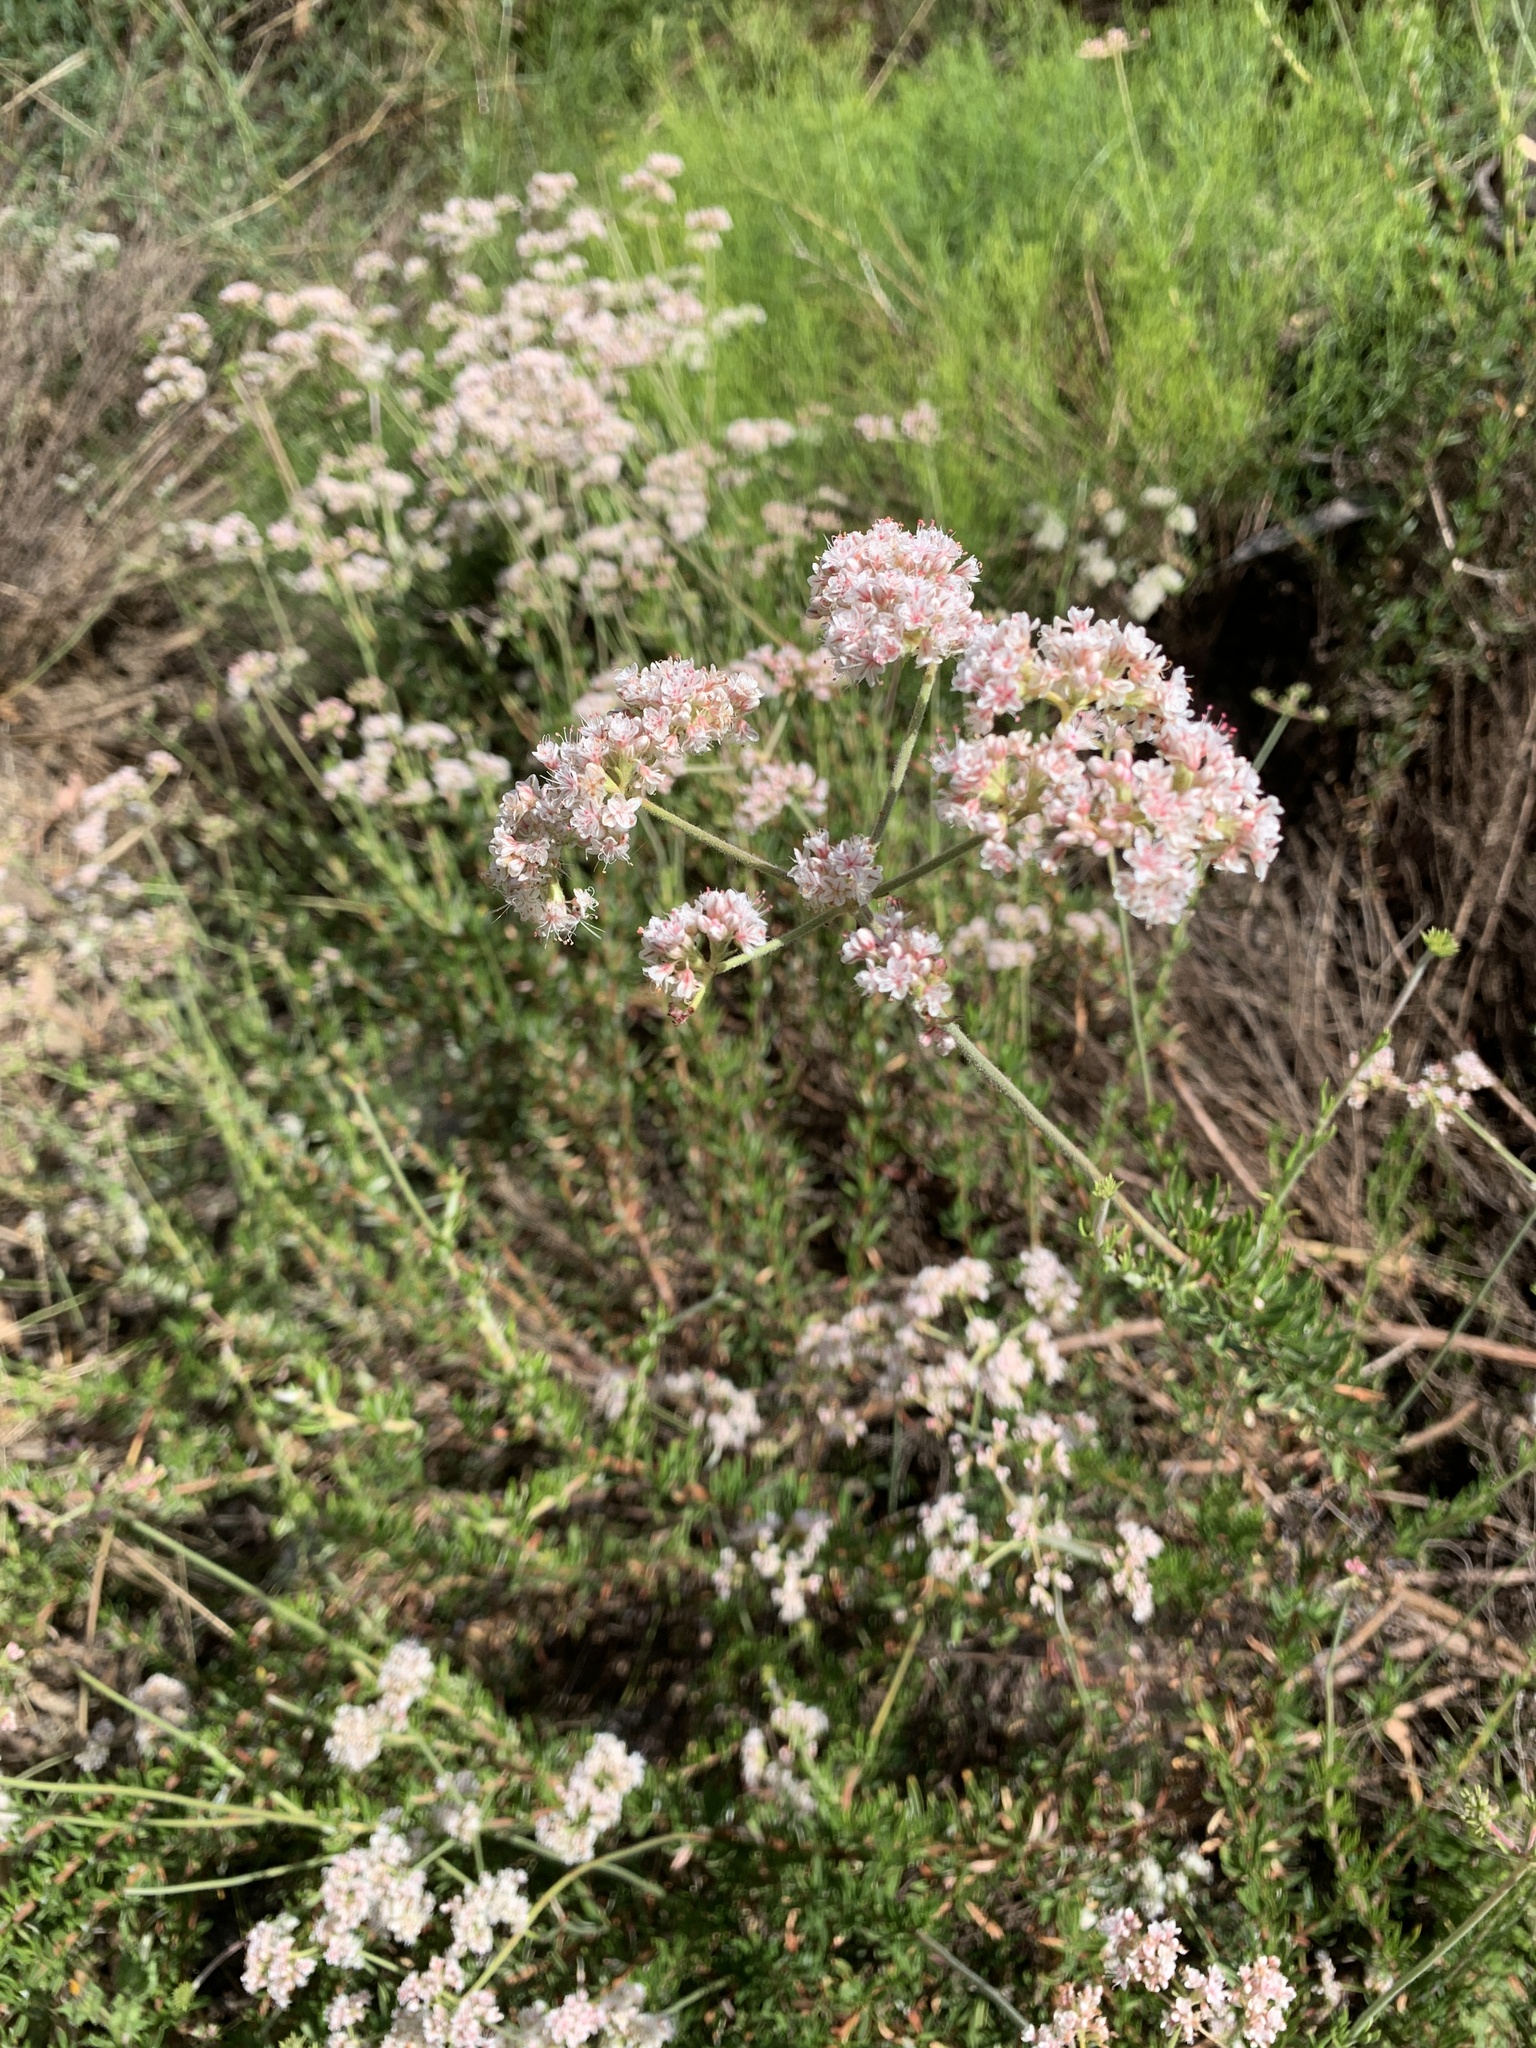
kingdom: Plantae
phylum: Tracheophyta
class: Magnoliopsida
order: Caryophyllales
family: Polygonaceae
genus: Eriogonum
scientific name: Eriogonum fasciculatum
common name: California wild buckwheat
